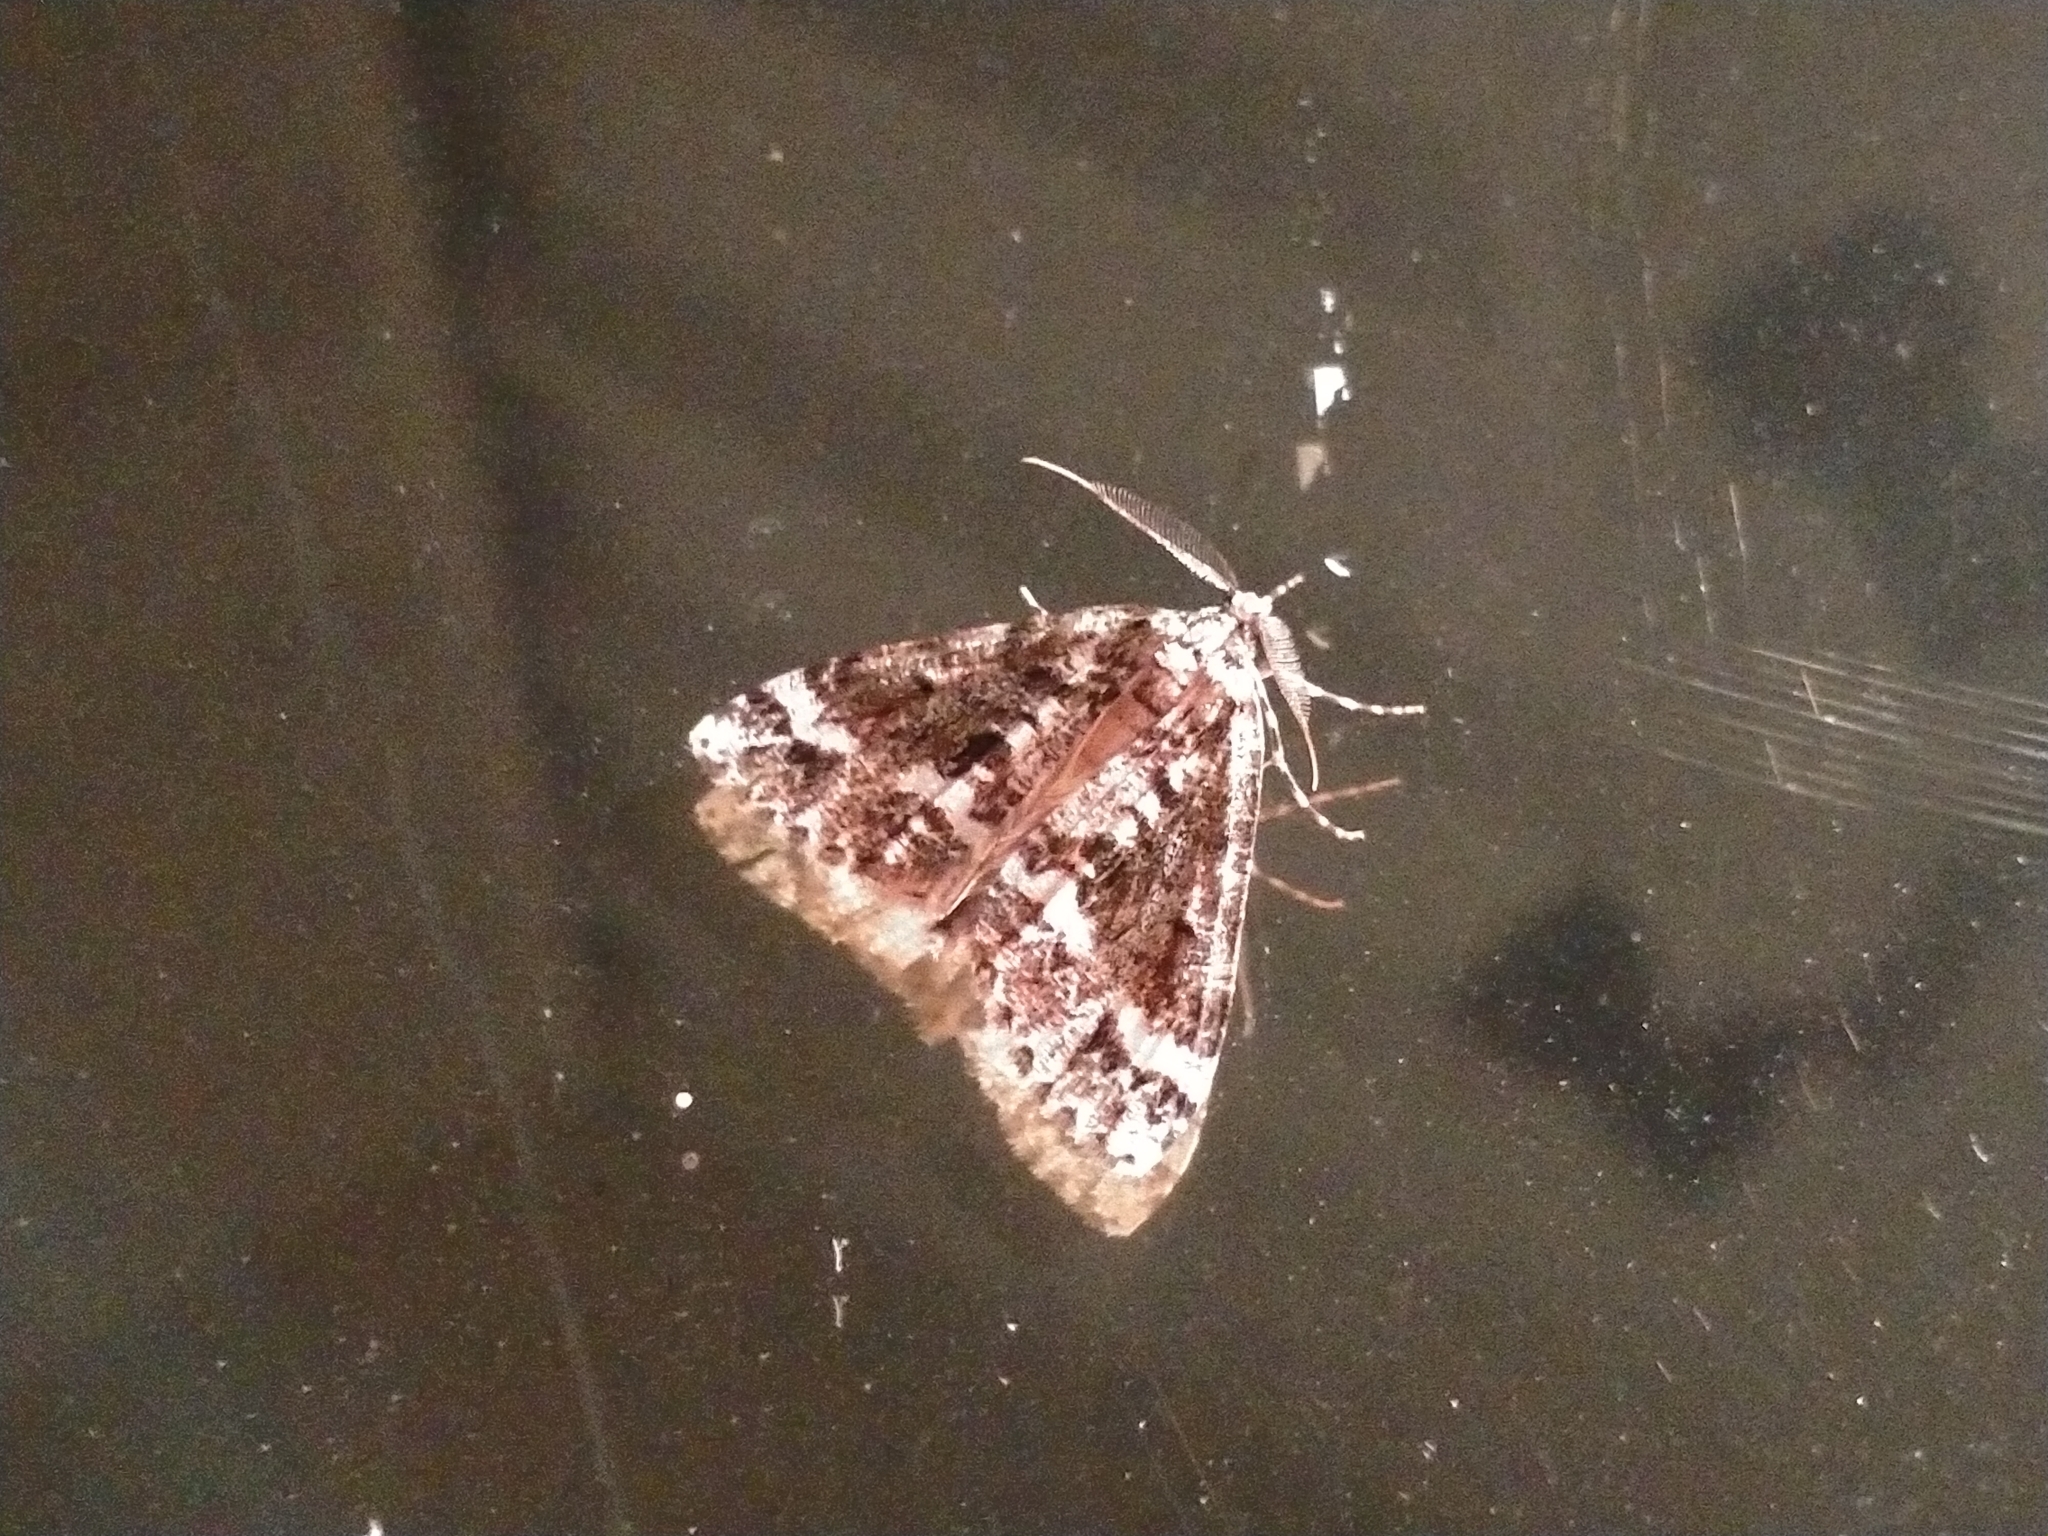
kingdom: Animalia
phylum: Arthropoda
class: Insecta
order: Lepidoptera
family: Geometridae
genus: Pseudocoremia
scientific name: Pseudocoremia leucelaea
